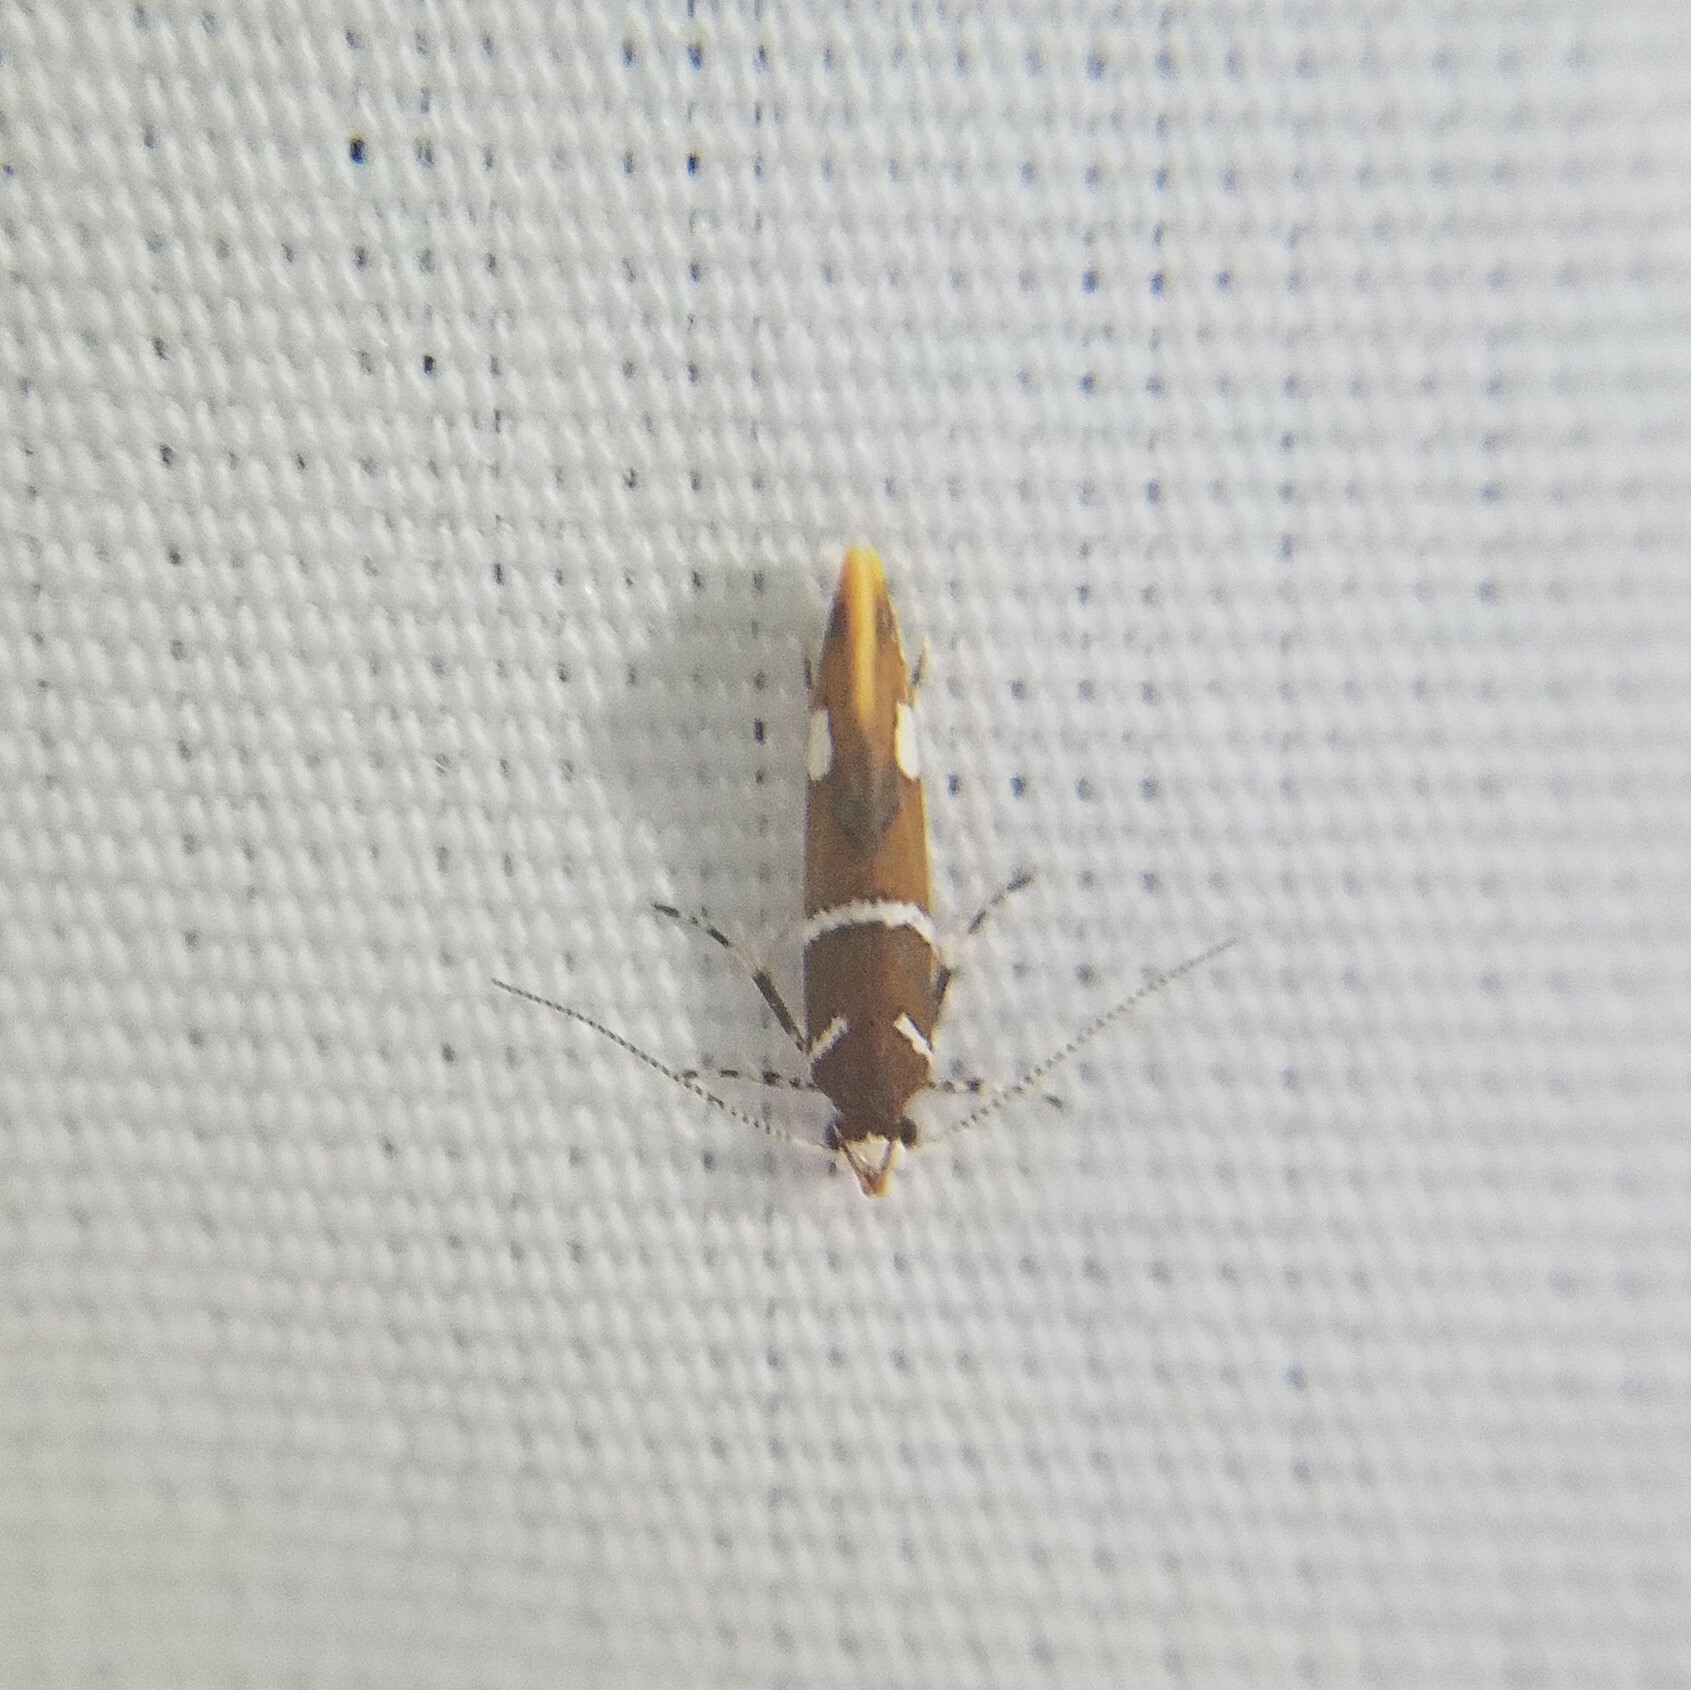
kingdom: Animalia
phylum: Arthropoda
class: Insecta
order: Lepidoptera
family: Oecophoridae
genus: Promalactis
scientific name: Promalactis suzukiella
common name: Moth
